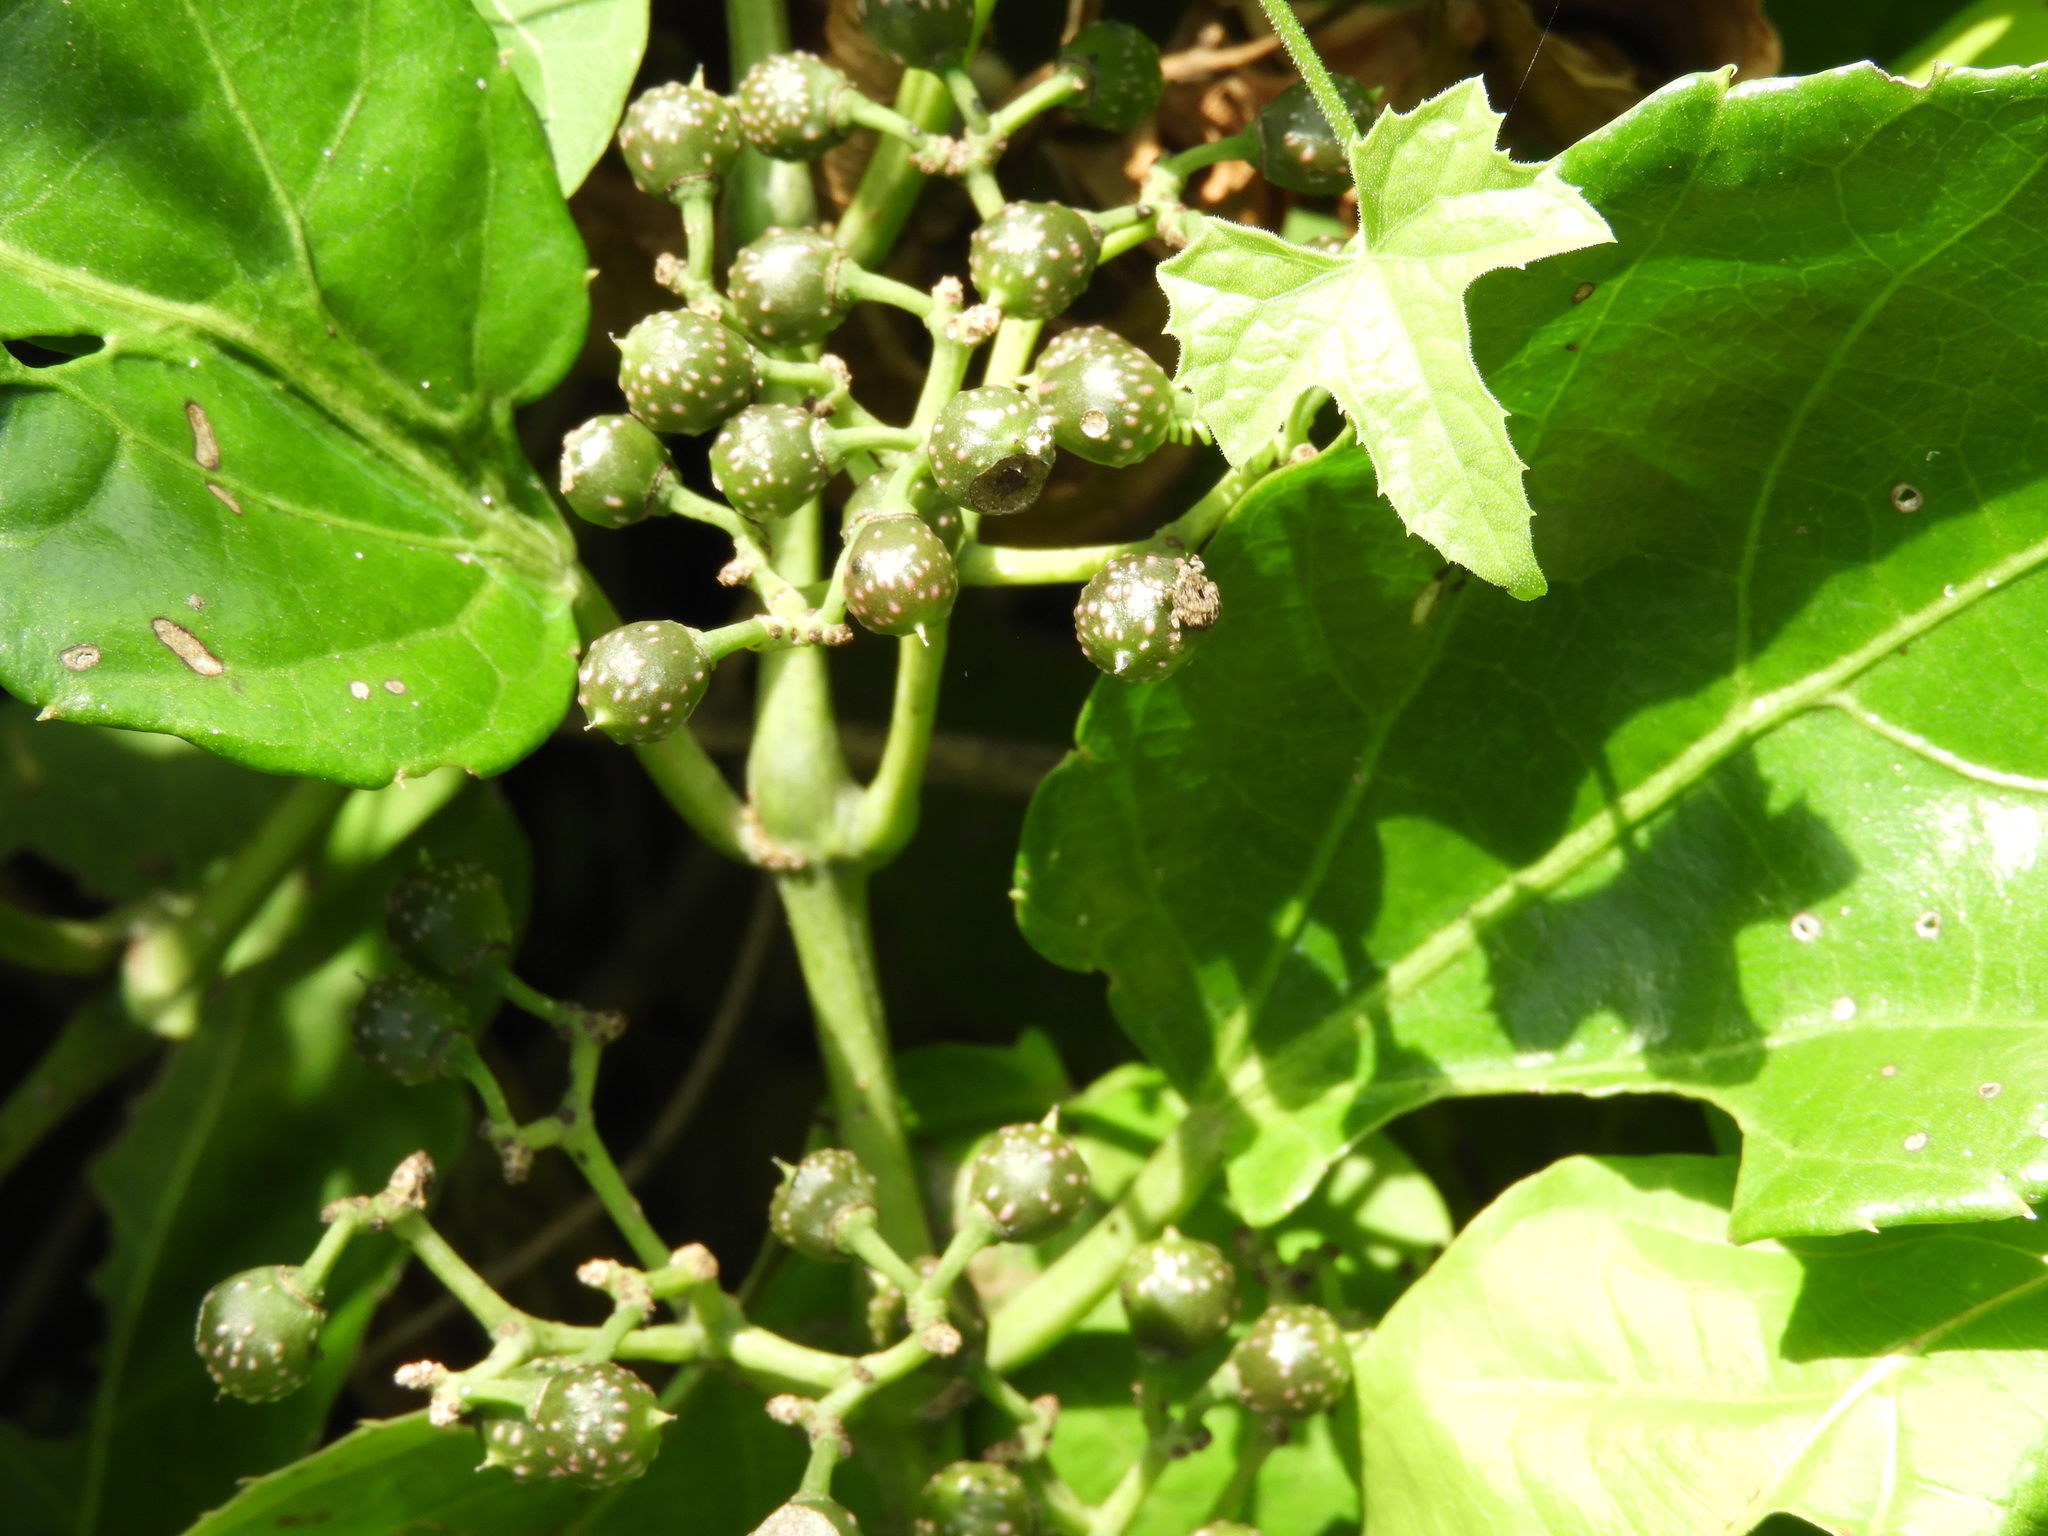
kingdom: Plantae
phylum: Tracheophyta
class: Magnoliopsida
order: Vitales
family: Vitaceae
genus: Cissus
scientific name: Cissus verticillata
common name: Princess vine
